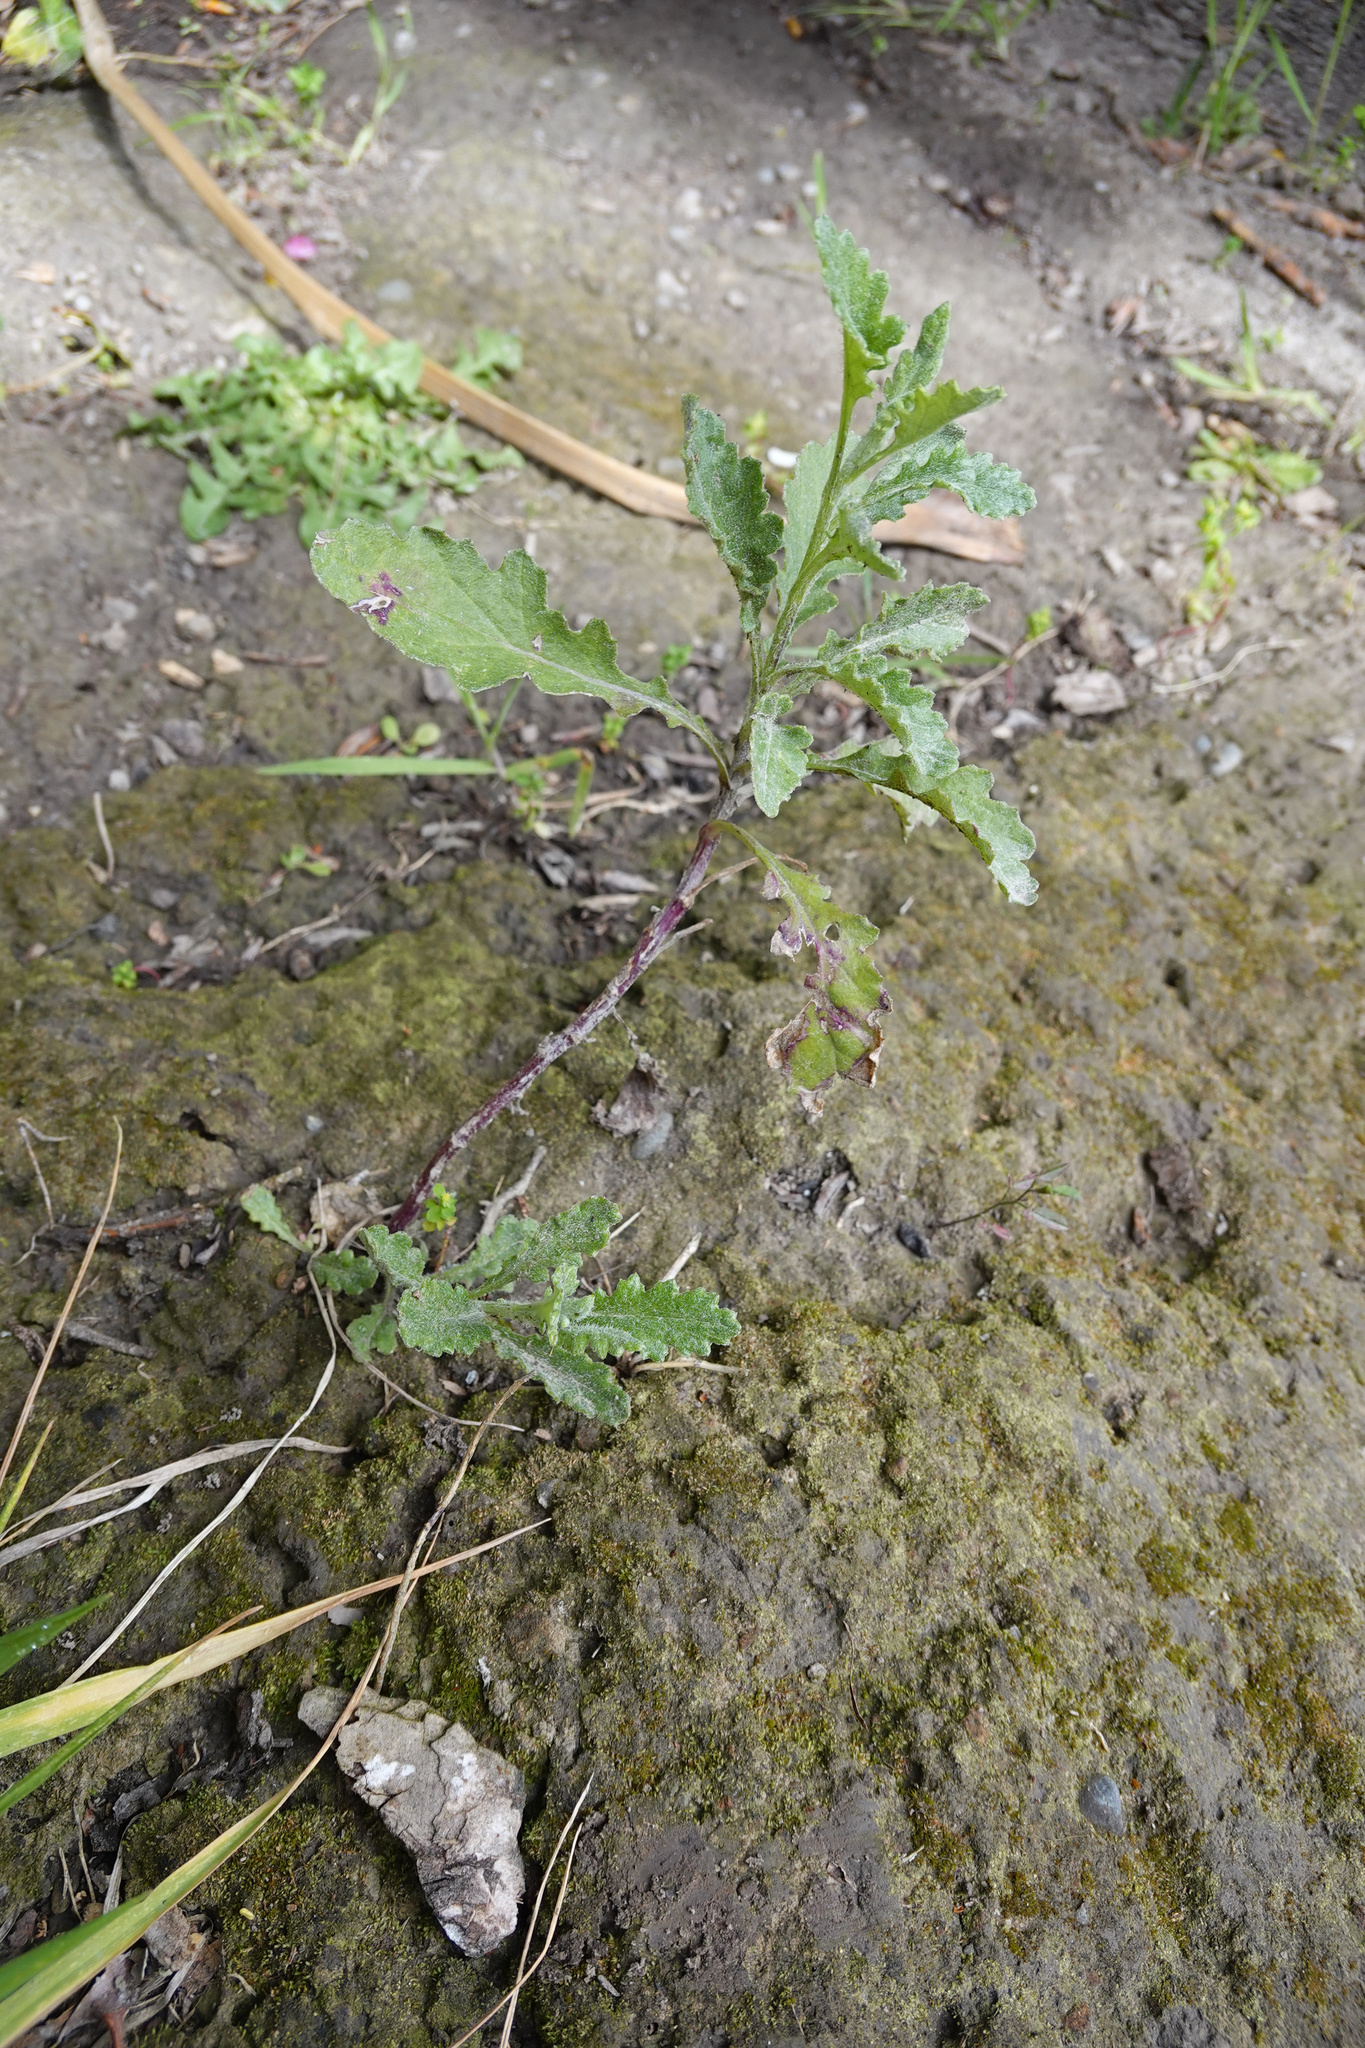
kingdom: Plantae
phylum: Tracheophyta
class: Magnoliopsida
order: Asterales
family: Asteraceae
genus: Senecio
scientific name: Senecio glomeratus
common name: Cutleaf burnweed
